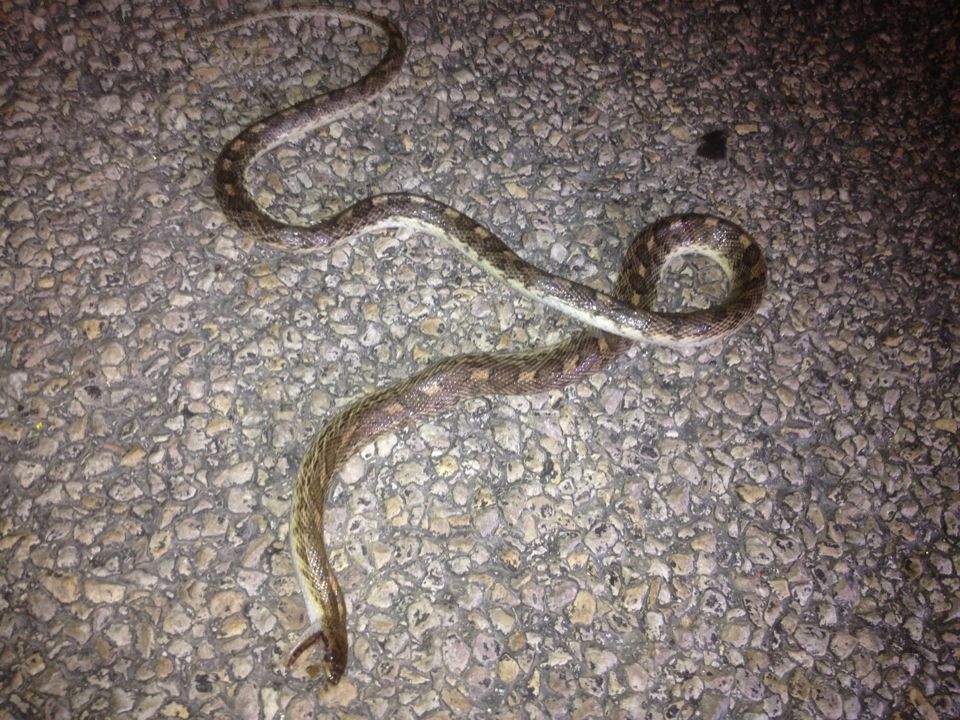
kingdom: Animalia
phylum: Chordata
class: Squamata
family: Colubridae
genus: Arizona
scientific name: Arizona elegans
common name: Glossy snake
